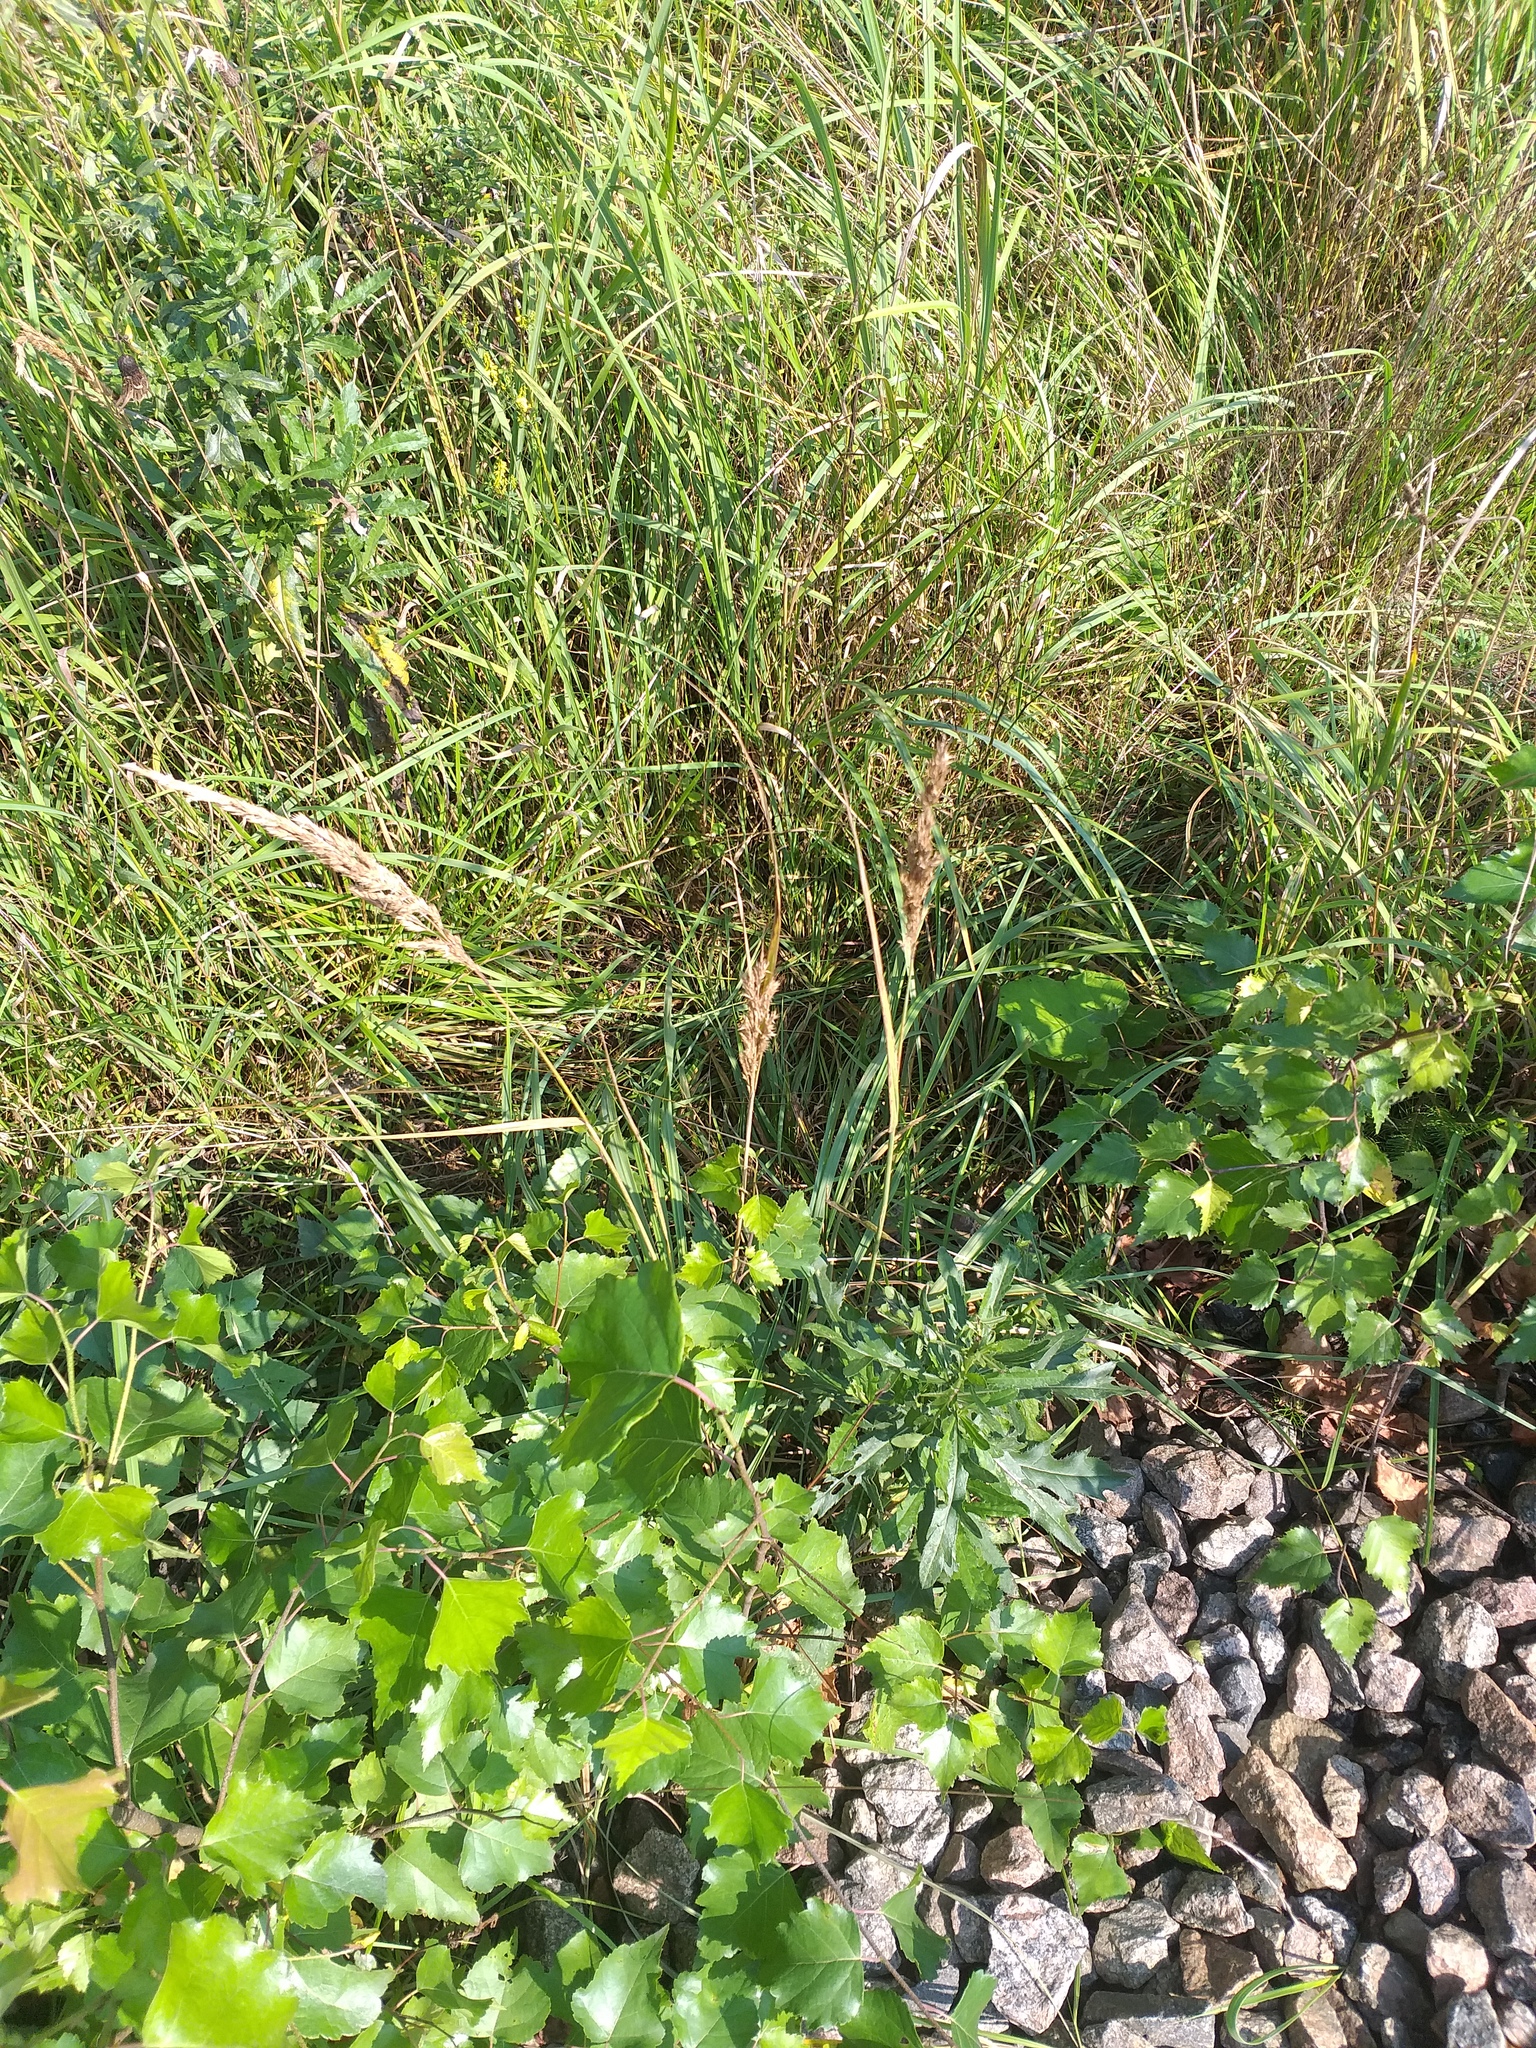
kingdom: Plantae
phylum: Tracheophyta
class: Liliopsida
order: Poales
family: Poaceae
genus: Calamagrostis
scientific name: Calamagrostis epigejos
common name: Wood small-reed
